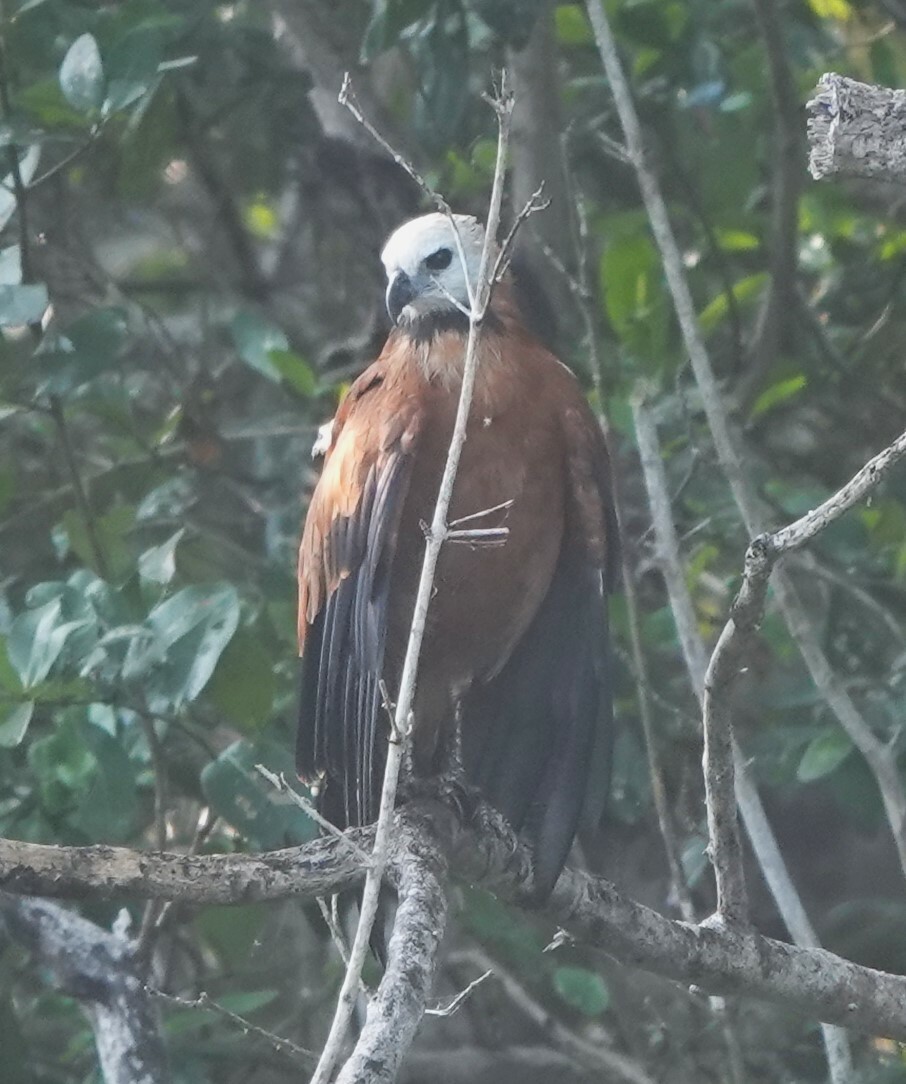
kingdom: Animalia
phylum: Chordata
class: Aves
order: Accipitriformes
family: Accipitridae
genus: Busarellus
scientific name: Busarellus nigricollis
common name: Black-collared hawk
